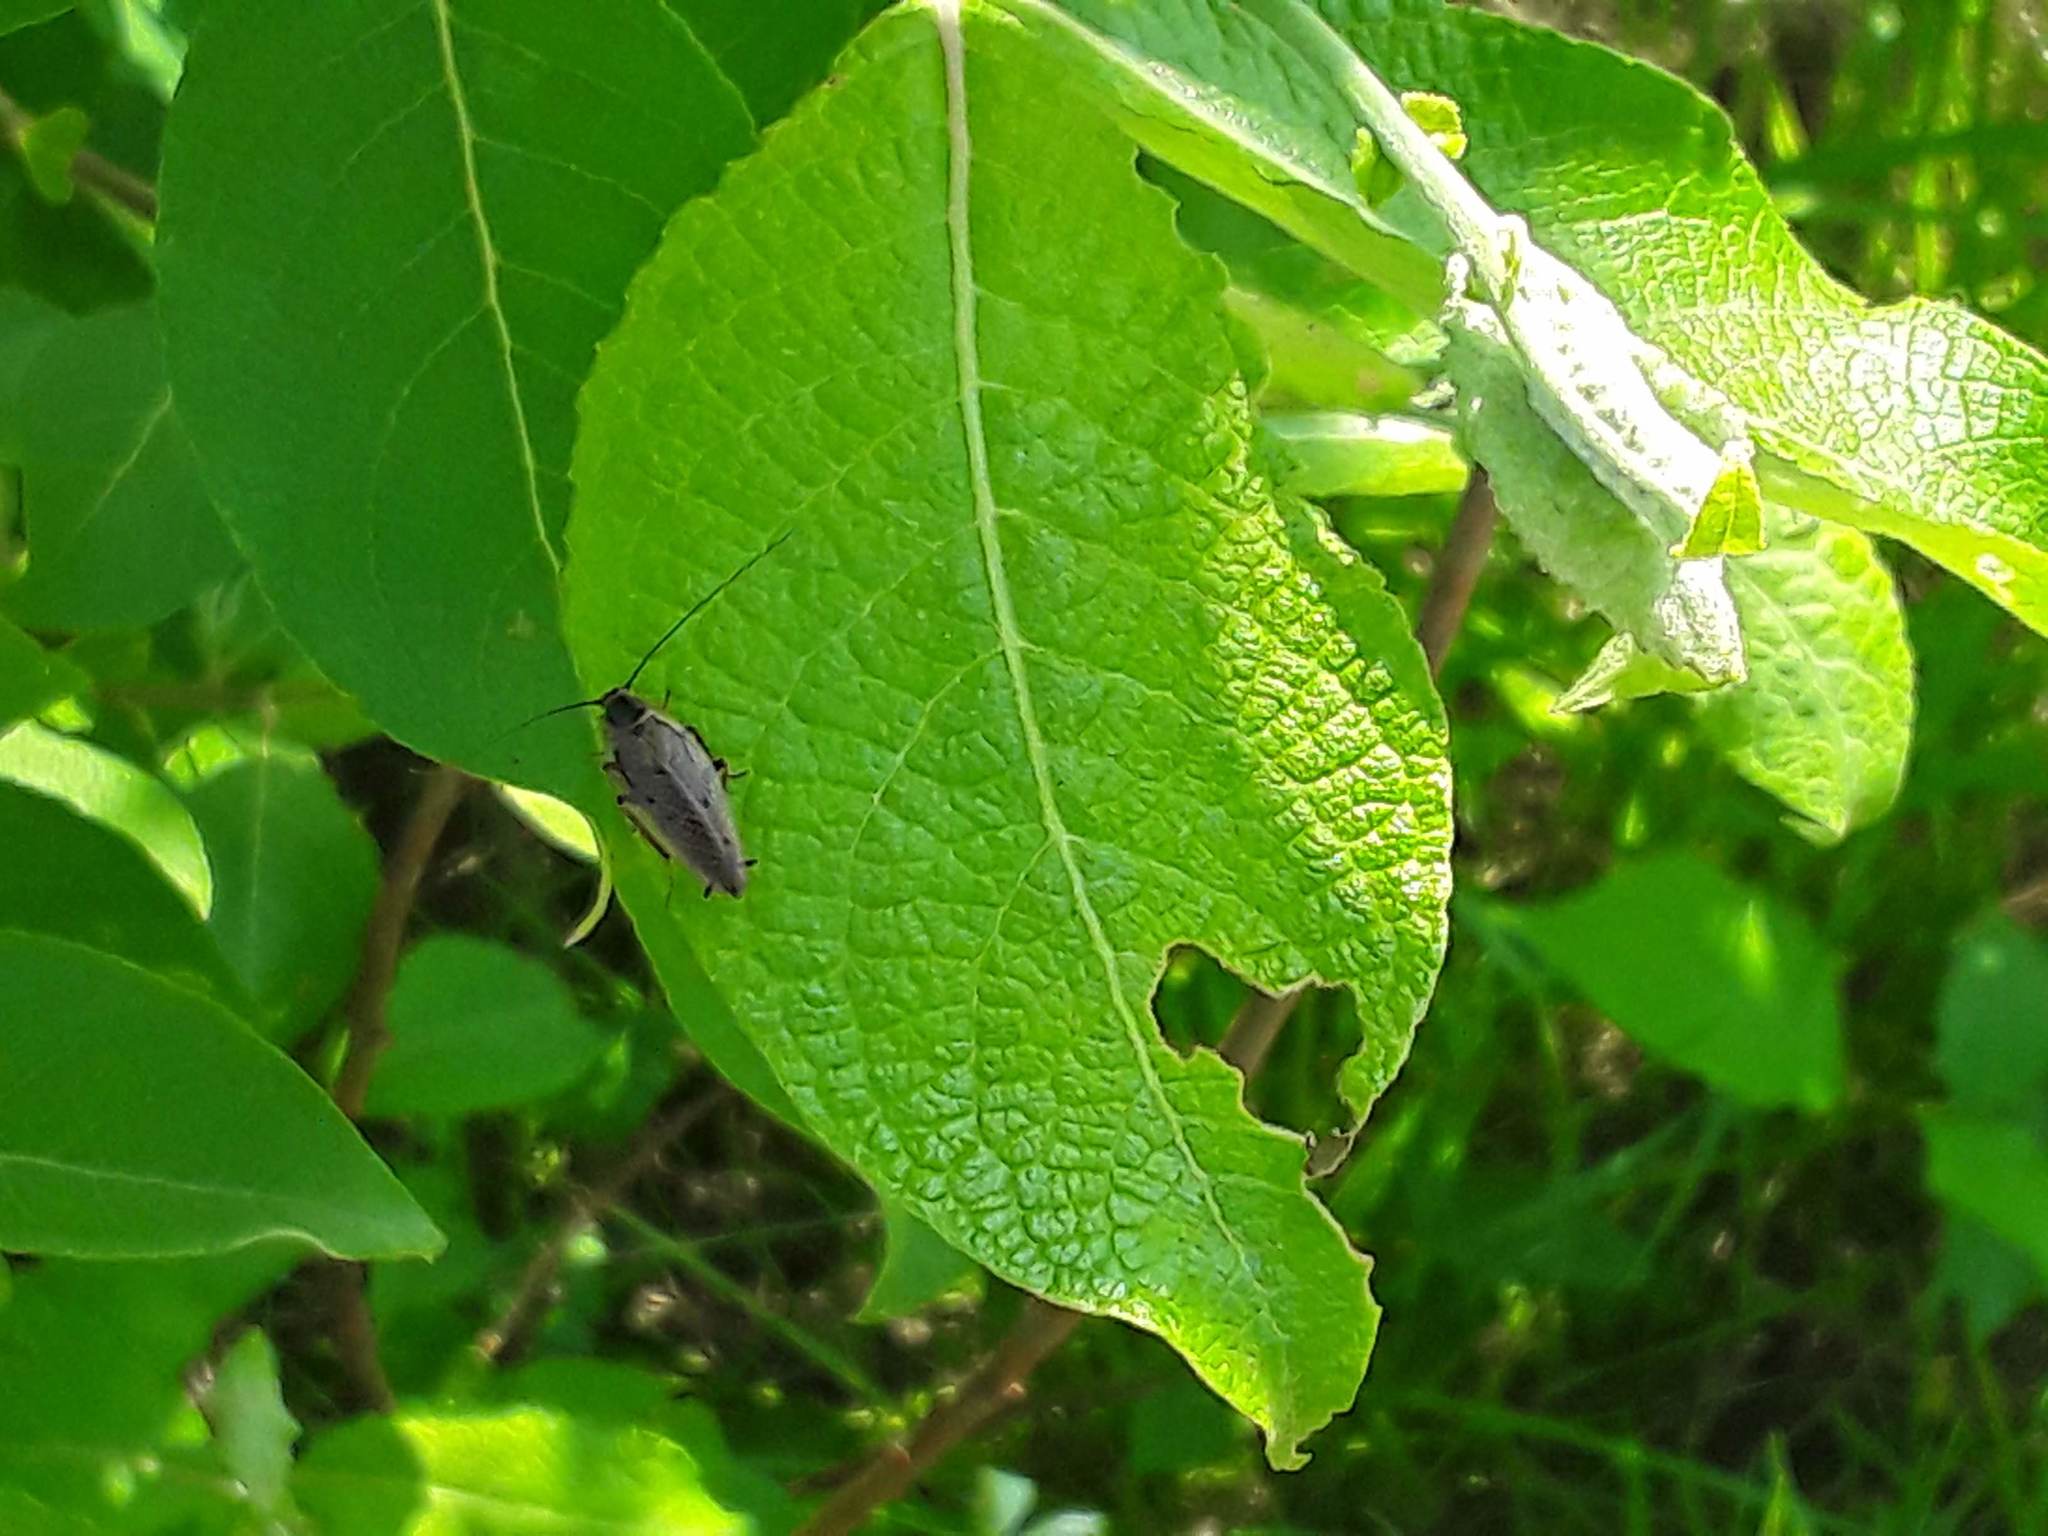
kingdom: Animalia
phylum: Arthropoda
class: Insecta
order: Blattodea
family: Ectobiidae
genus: Ectobius
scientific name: Ectobius lapponicus
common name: Dusky cockroach
